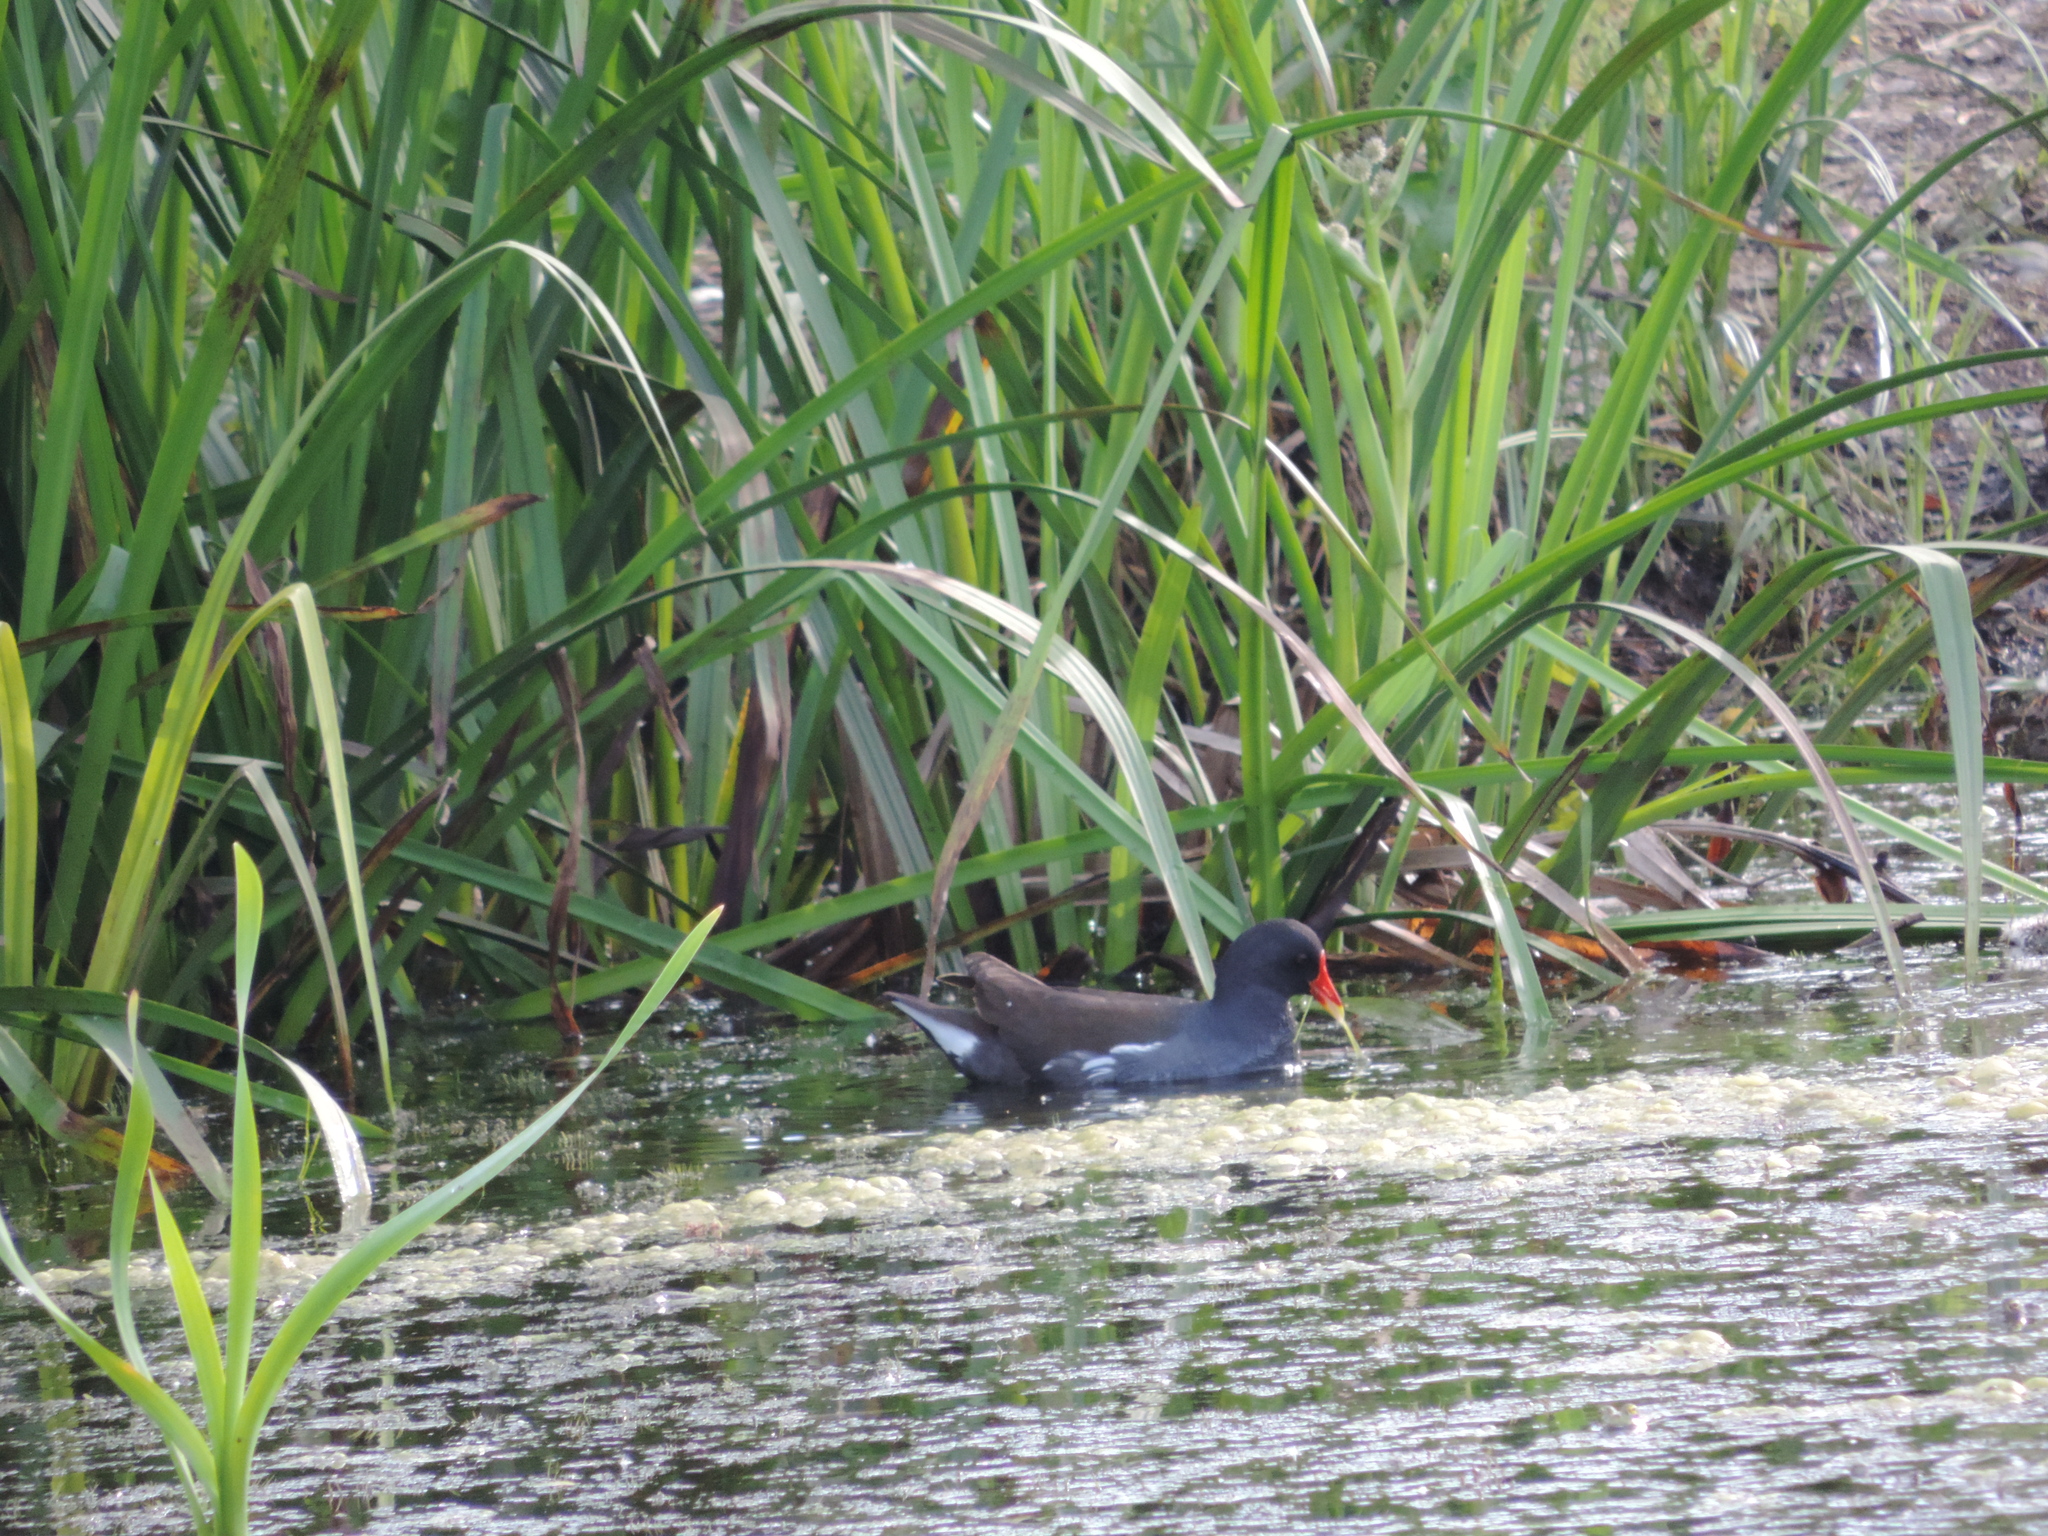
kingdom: Animalia
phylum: Chordata
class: Aves
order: Gruiformes
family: Rallidae
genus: Gallinula
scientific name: Gallinula chloropus
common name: Common moorhen
